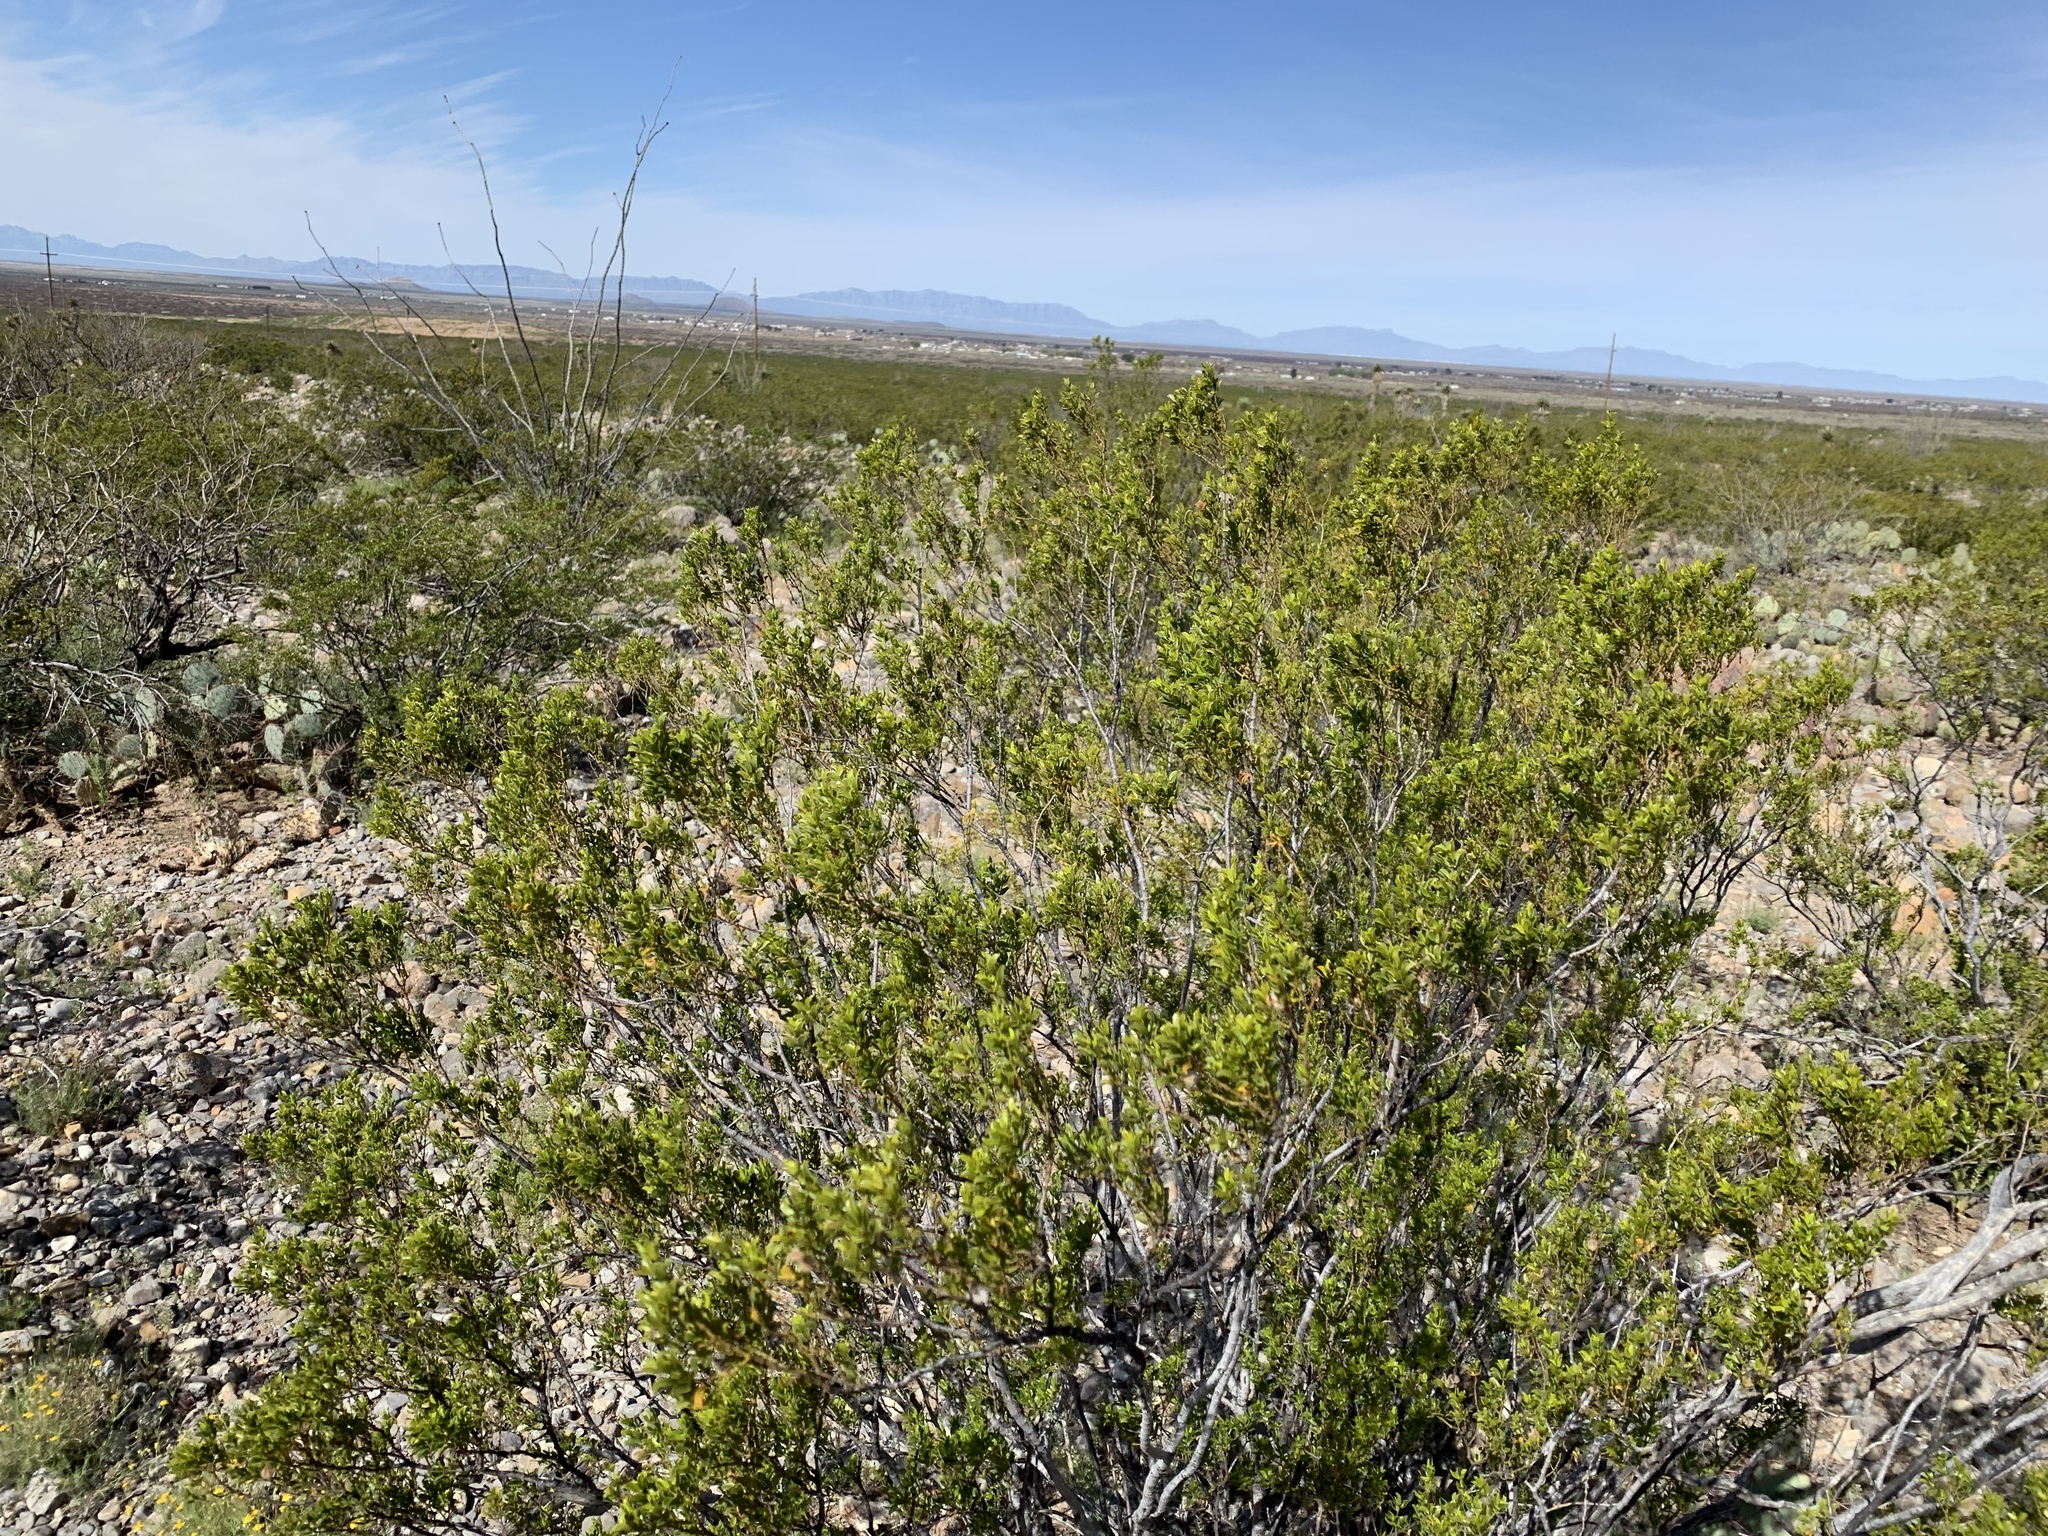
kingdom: Plantae
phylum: Tracheophyta
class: Magnoliopsida
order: Zygophyllales
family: Zygophyllaceae
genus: Larrea
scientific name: Larrea tridentata
